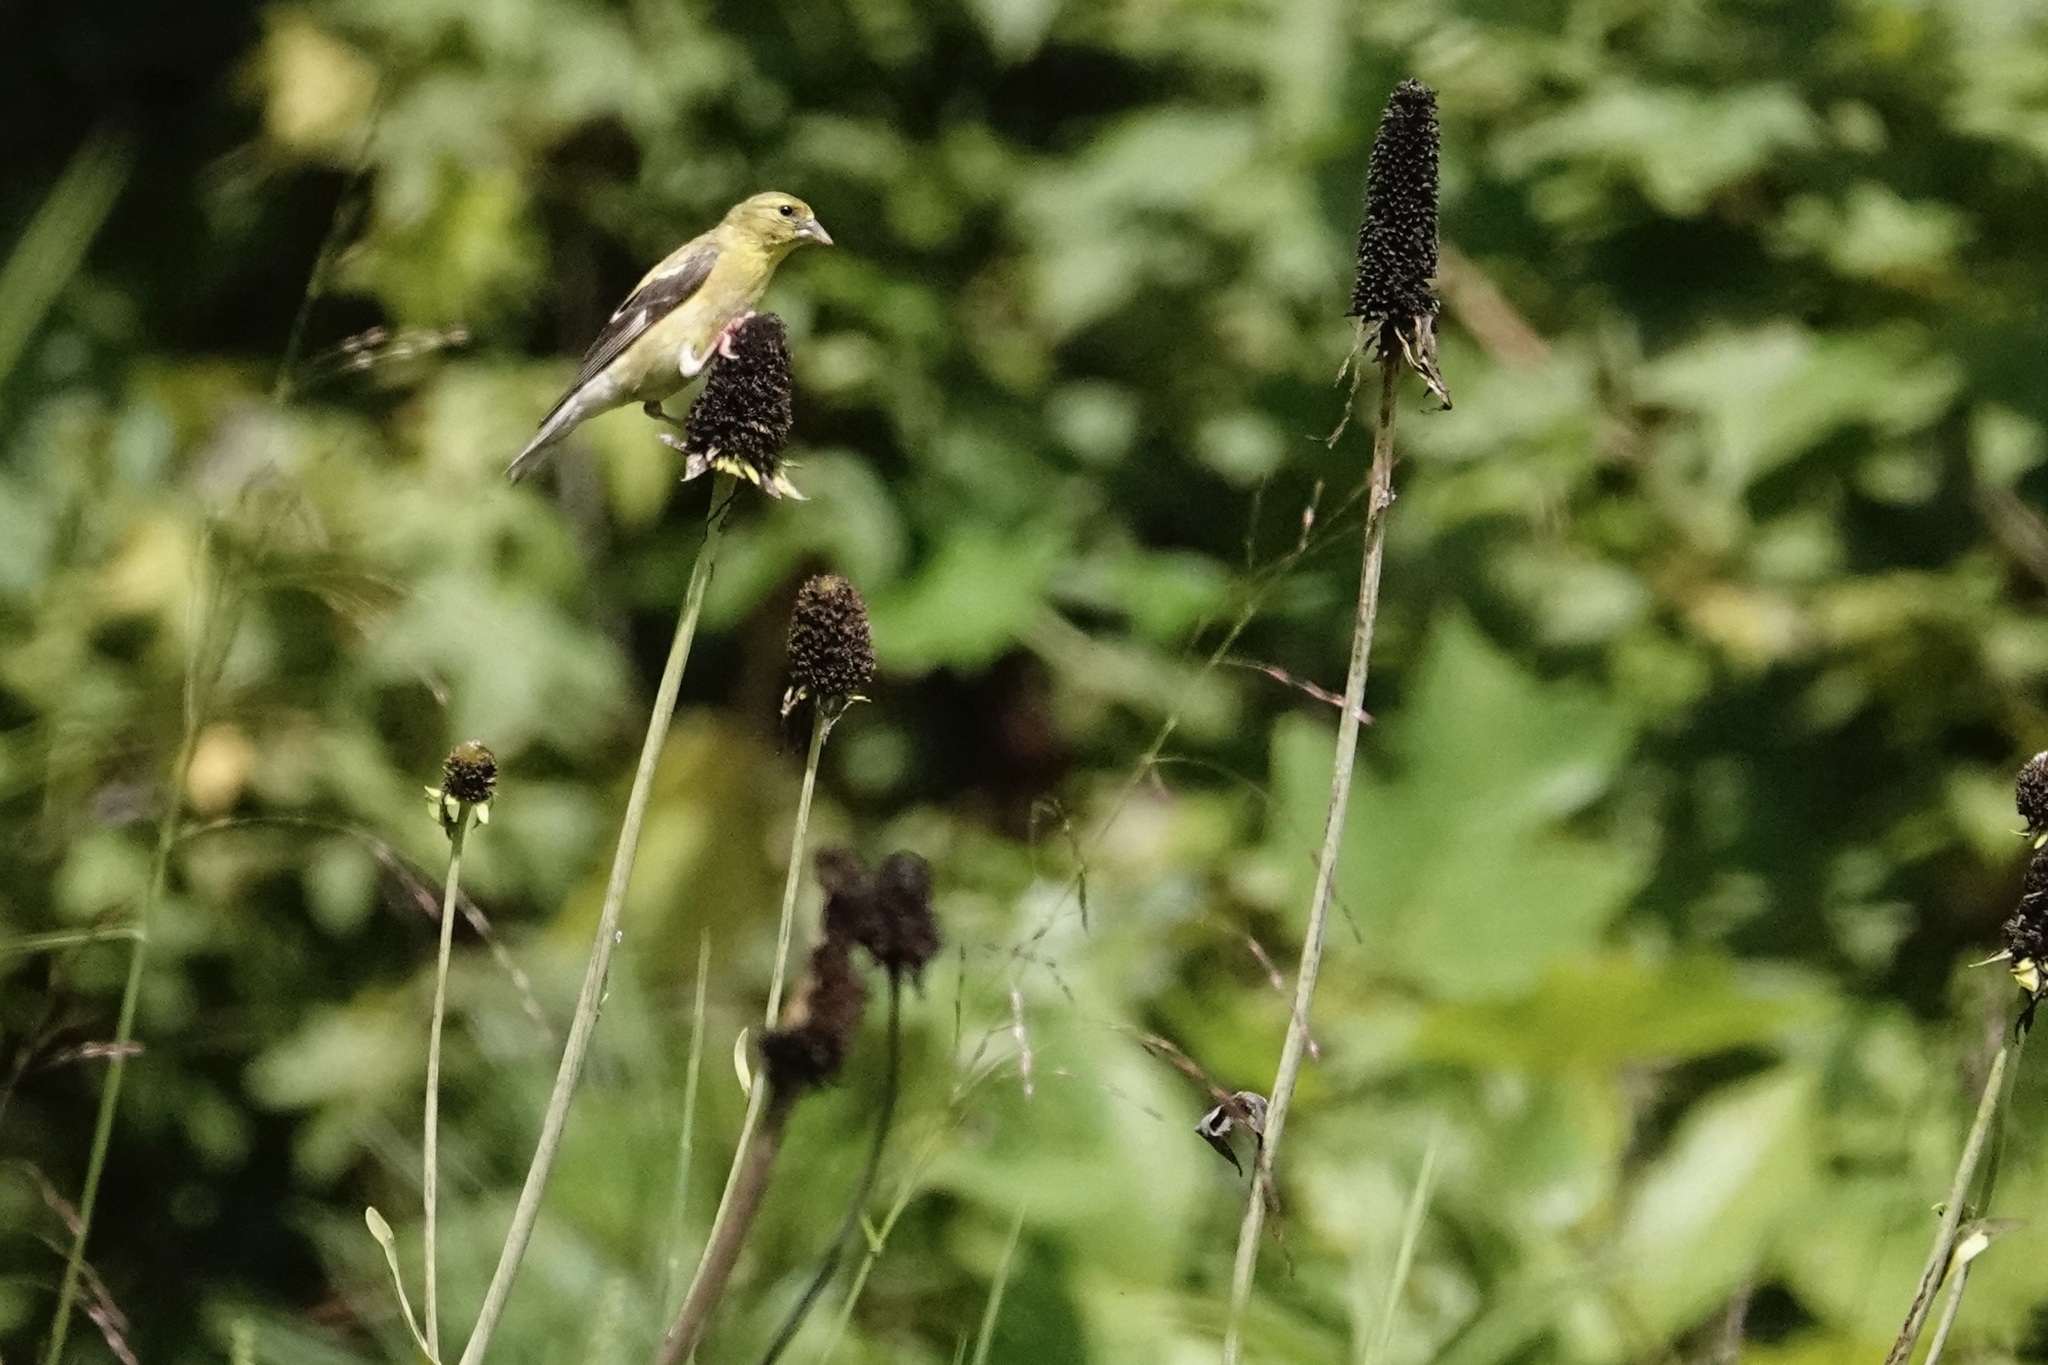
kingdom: Animalia
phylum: Chordata
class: Aves
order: Passeriformes
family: Fringillidae
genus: Spinus
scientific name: Spinus tristis
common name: American goldfinch
